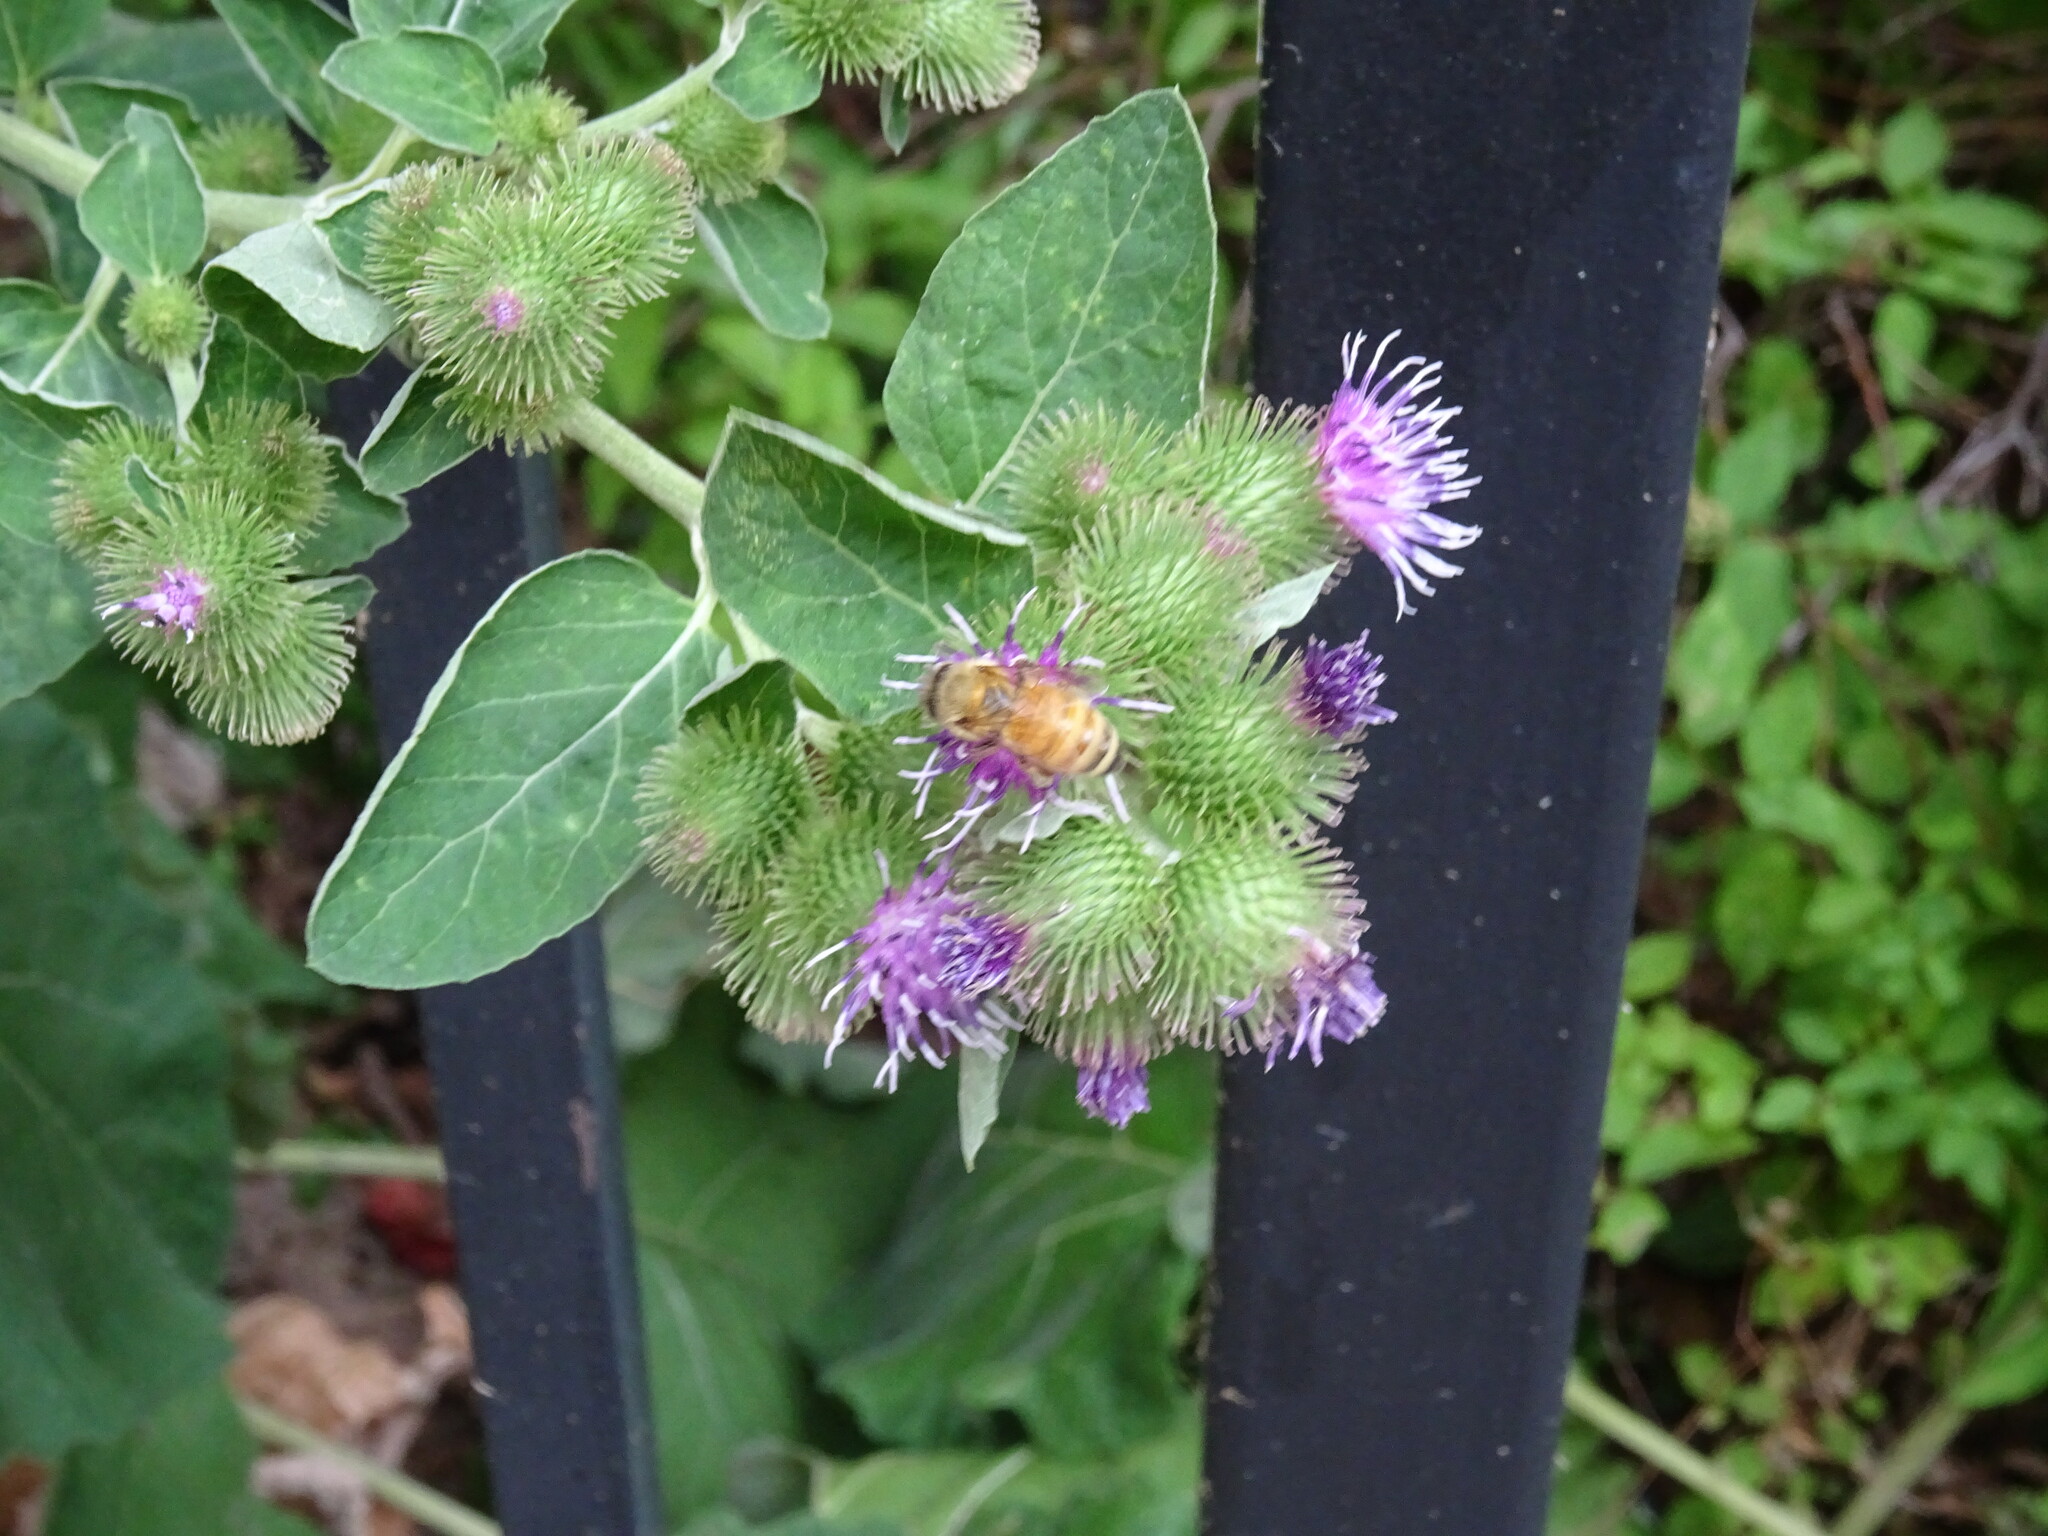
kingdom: Plantae
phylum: Tracheophyta
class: Magnoliopsida
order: Asterales
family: Asteraceae
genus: Arctium
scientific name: Arctium minus
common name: Lesser burdock
